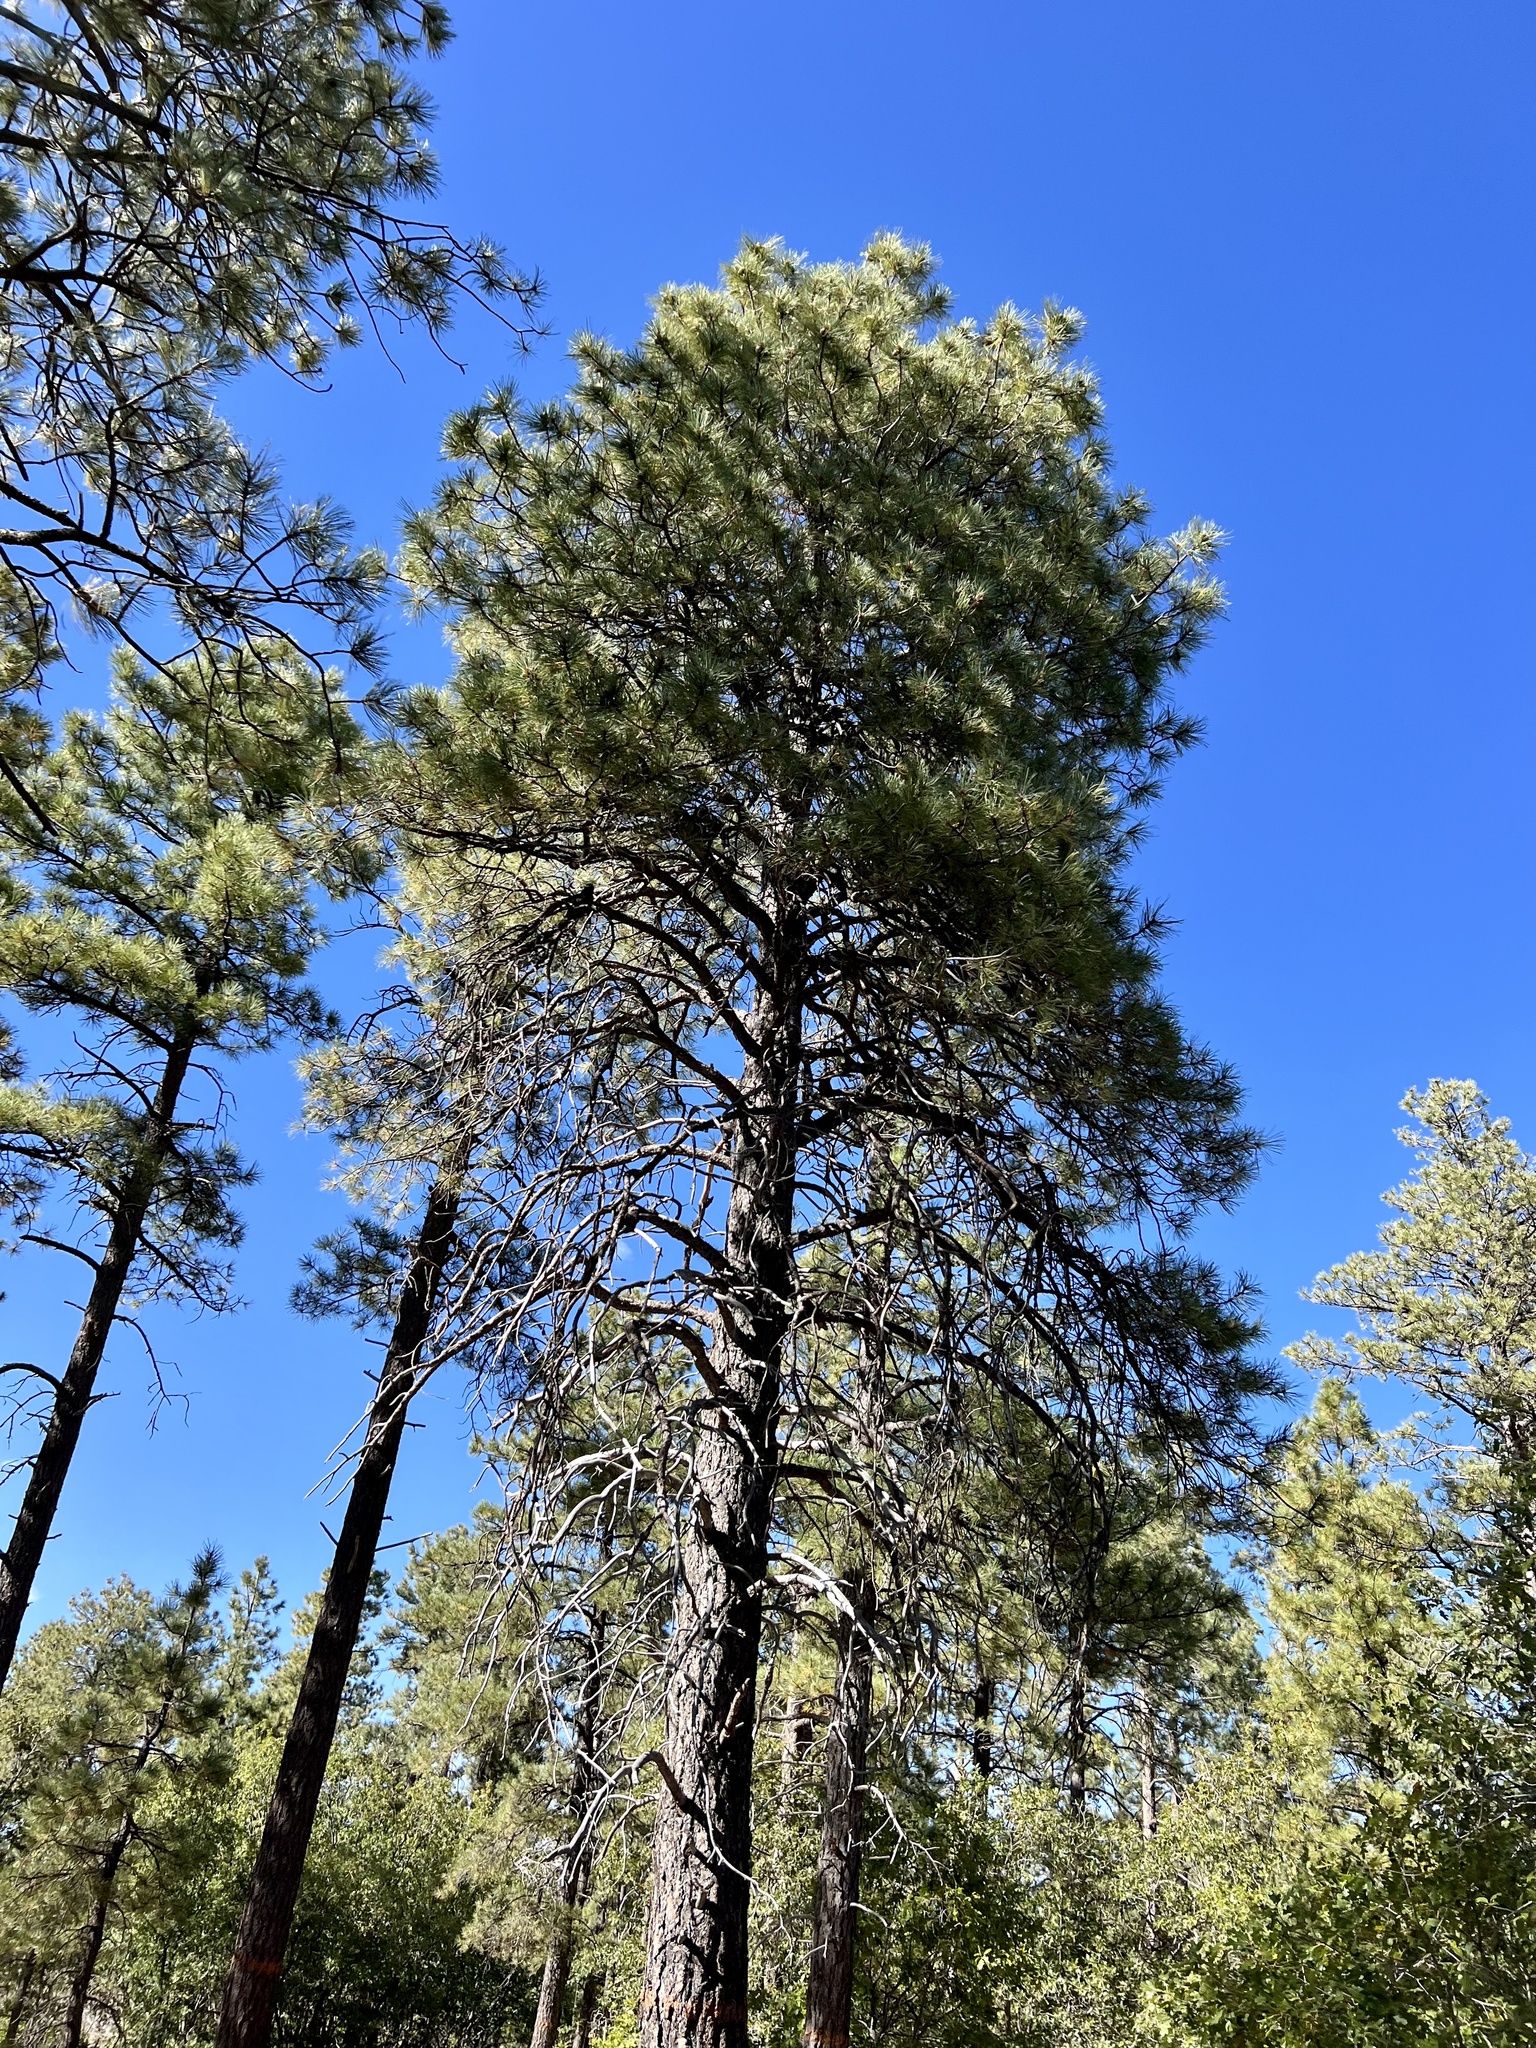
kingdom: Plantae
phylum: Tracheophyta
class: Pinopsida
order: Pinales
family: Pinaceae
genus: Pinus
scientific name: Pinus ponderosa
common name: Western yellow-pine
